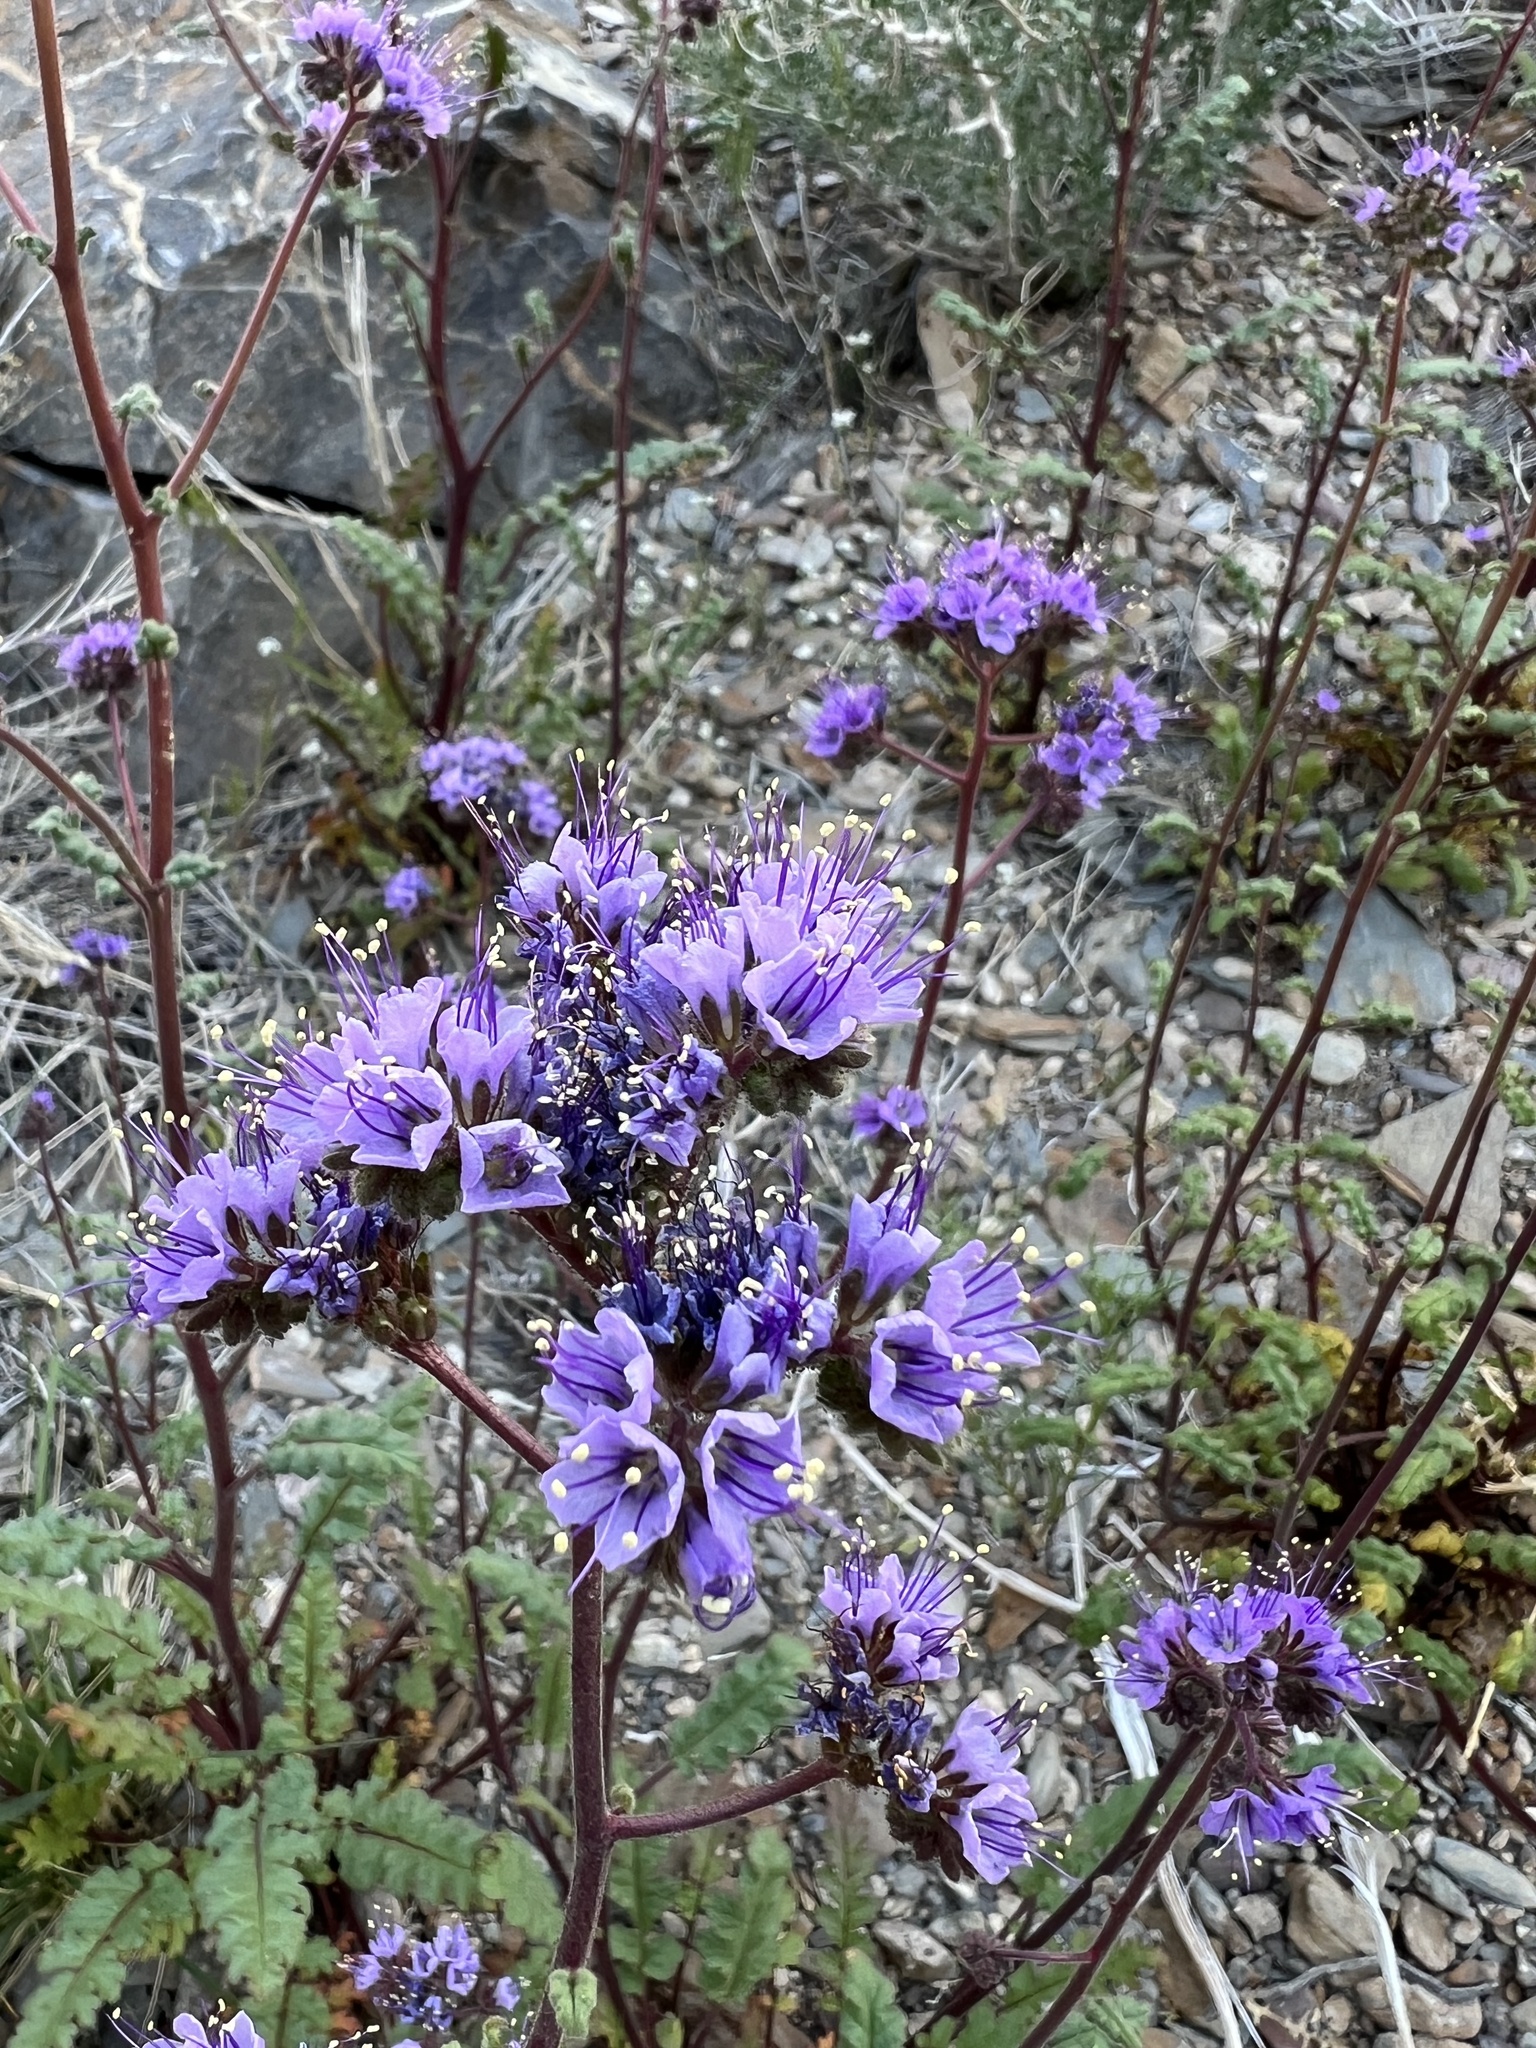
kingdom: Plantae
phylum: Tracheophyta
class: Magnoliopsida
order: Boraginales
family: Hydrophyllaceae
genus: Phacelia
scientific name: Phacelia crenulata
